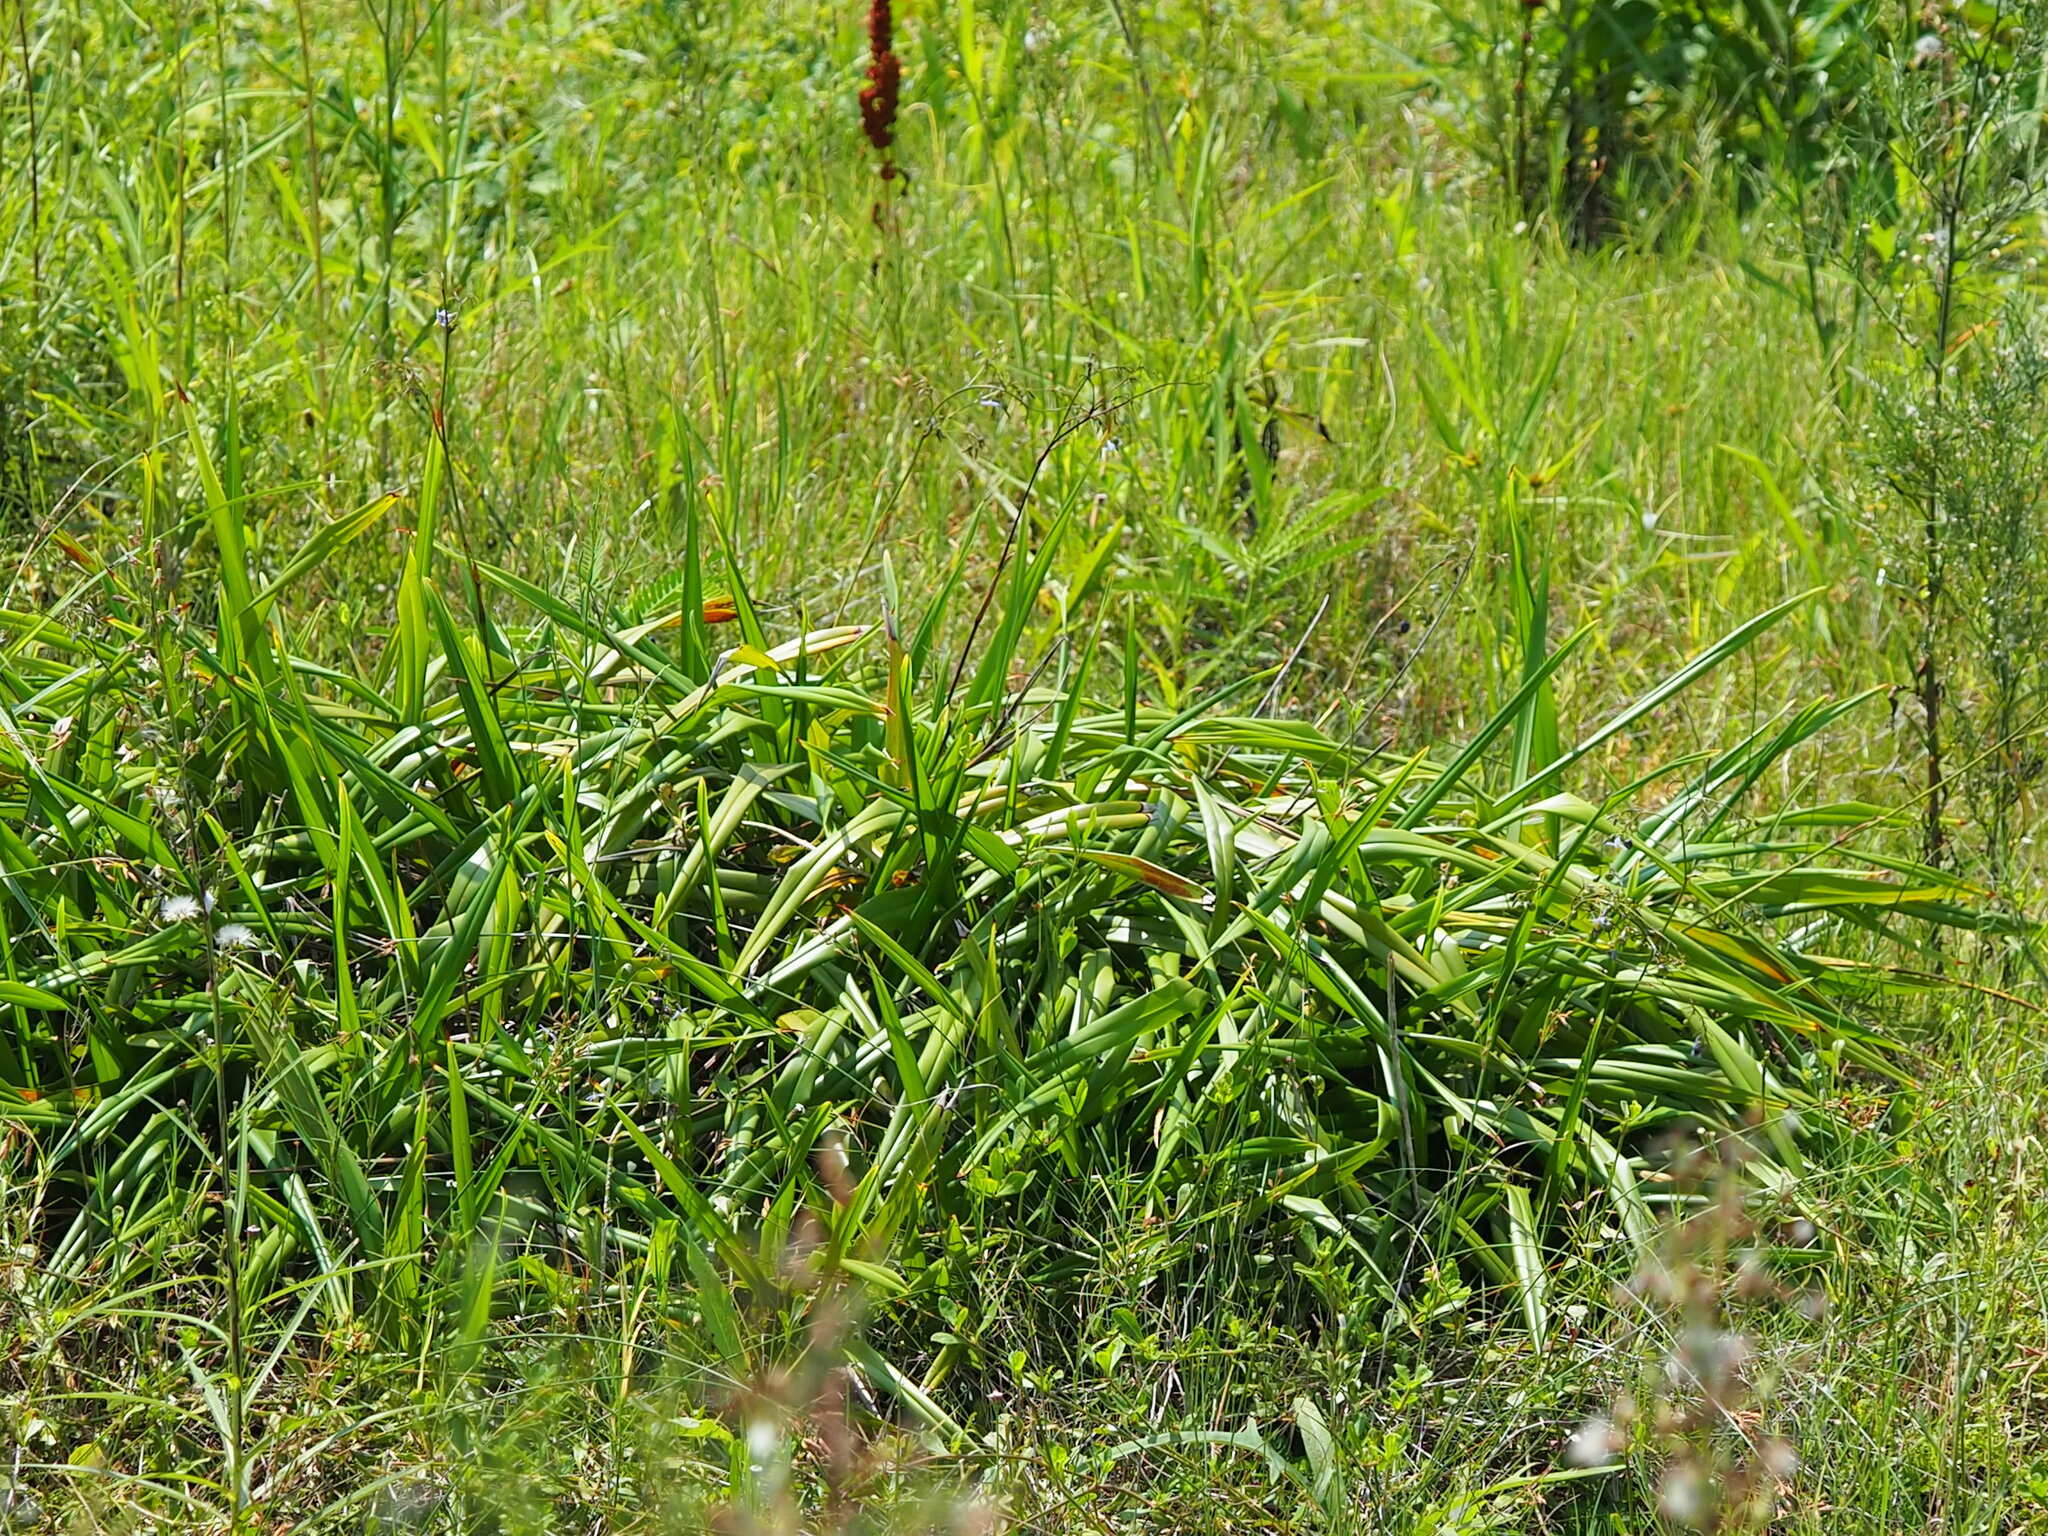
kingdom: Plantae
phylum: Tracheophyta
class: Liliopsida
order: Asparagales
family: Asphodelaceae
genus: Dianella
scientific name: Dianella ensifolia
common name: New zealand lilyplant
